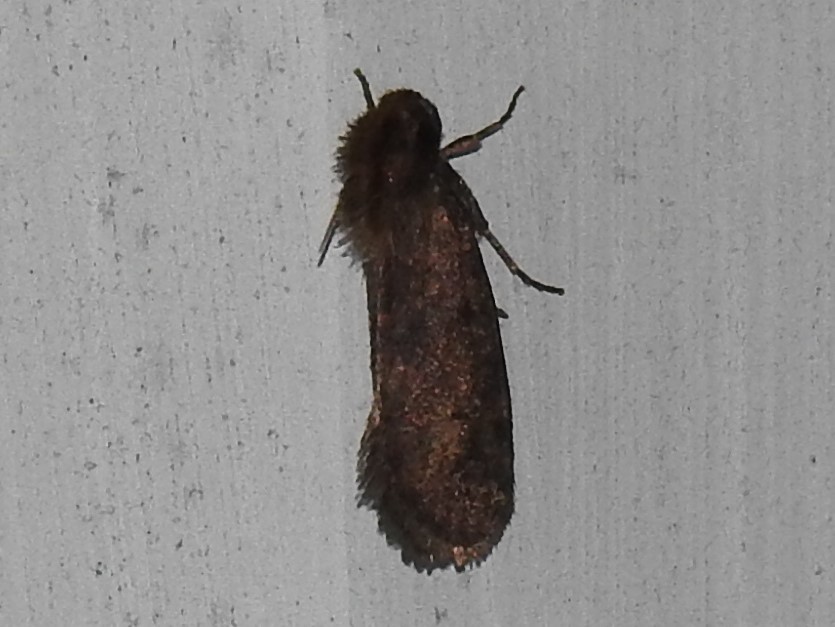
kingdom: Animalia
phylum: Arthropoda
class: Insecta
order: Lepidoptera
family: Tineidae
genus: Acrolophus
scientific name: Acrolophus popeanella
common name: Clemens' grass tubeworm moth
